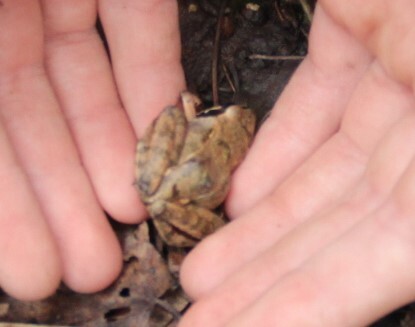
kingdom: Animalia
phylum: Chordata
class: Amphibia
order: Anura
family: Ranidae
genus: Rana
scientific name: Rana
